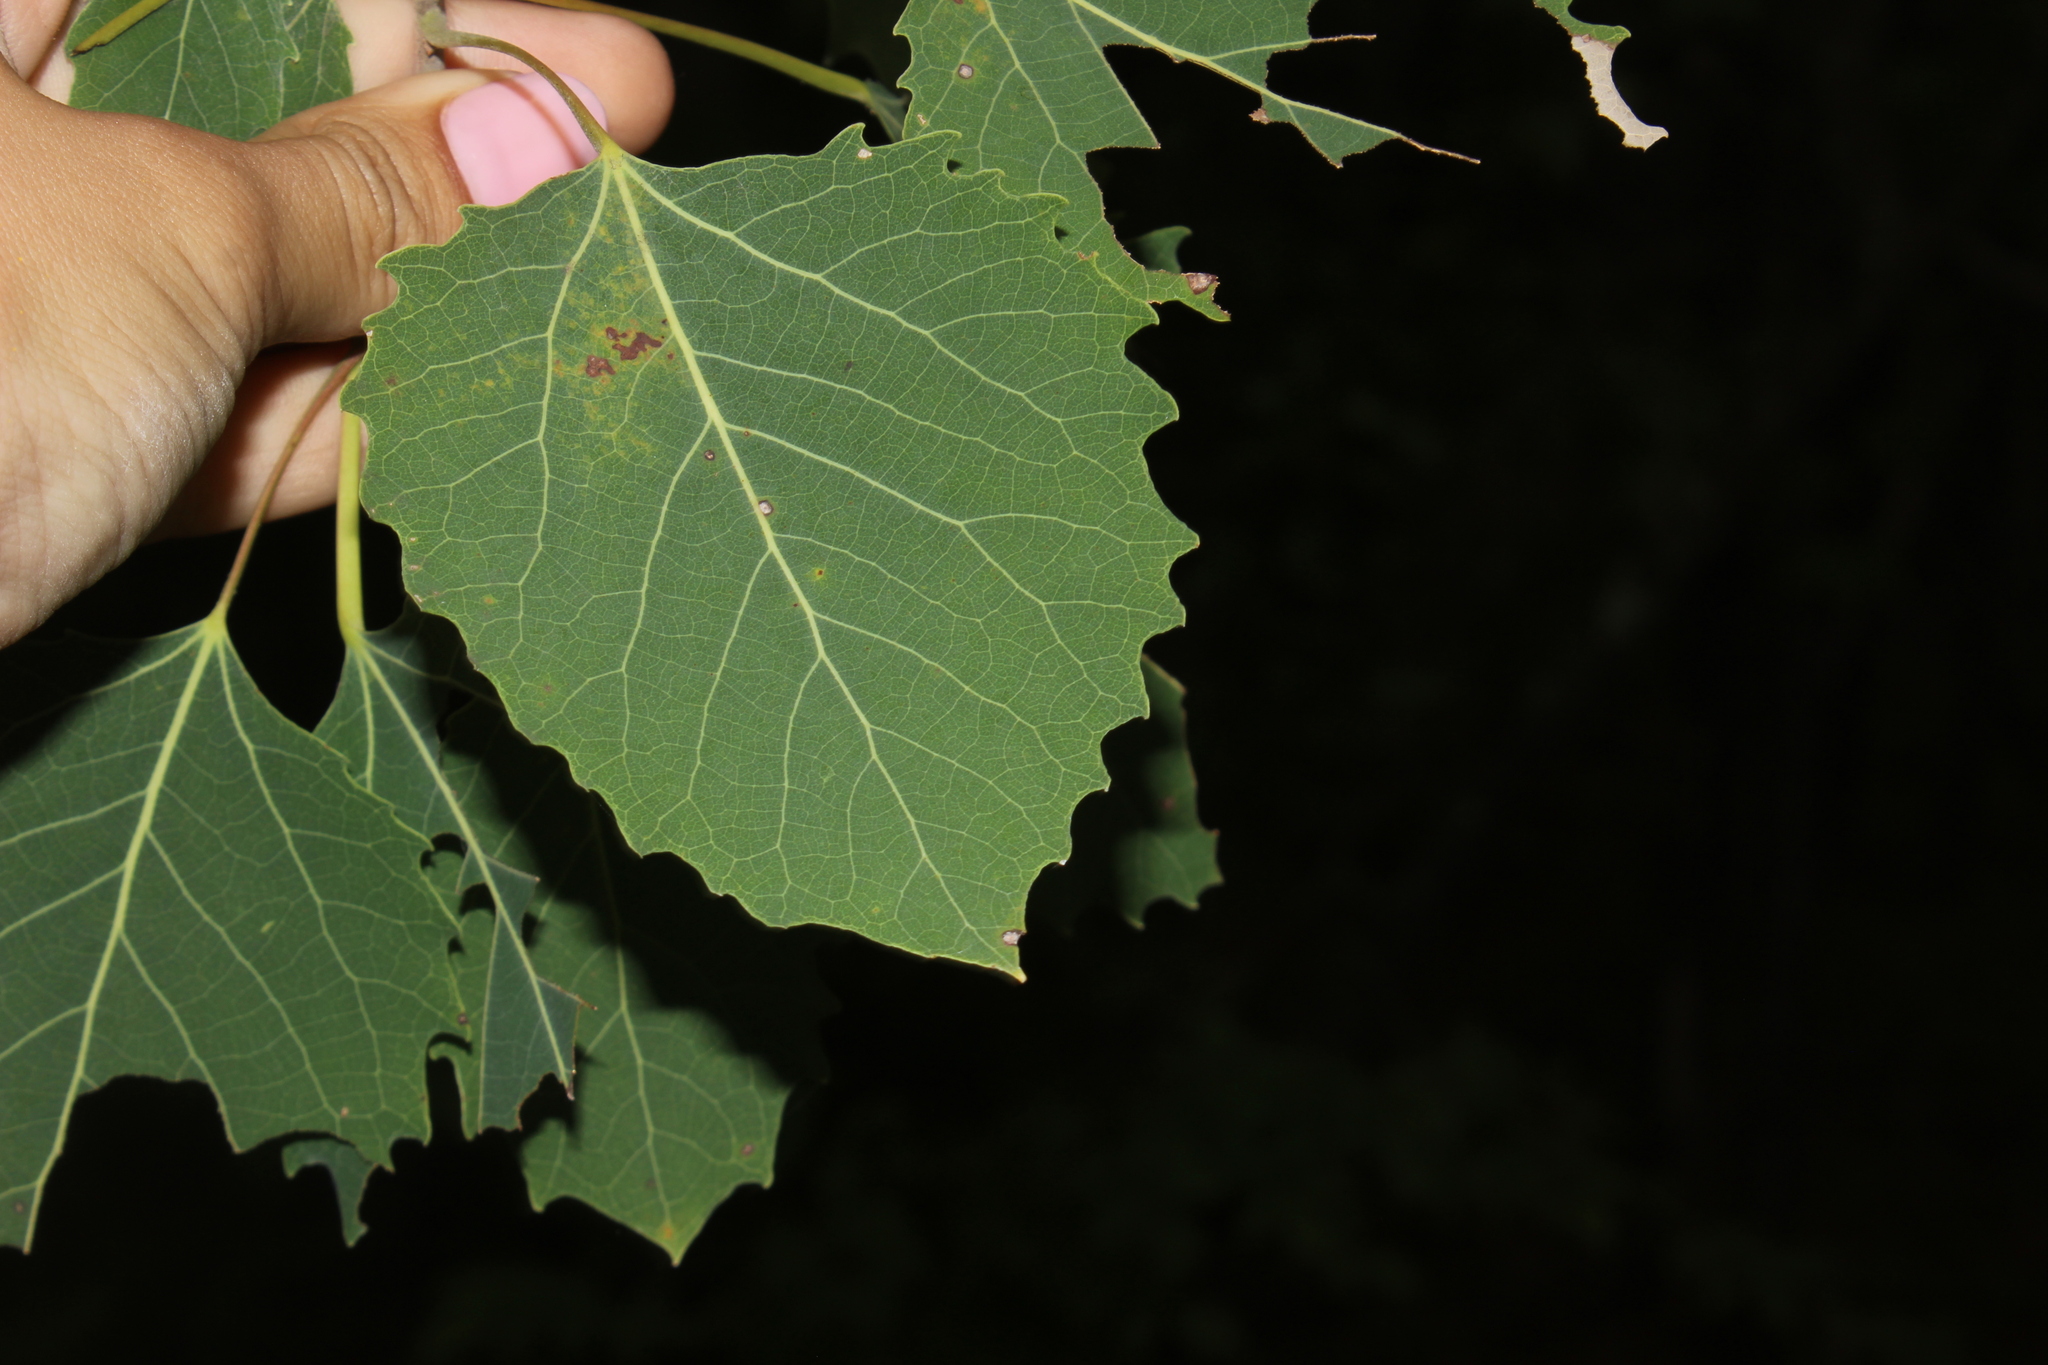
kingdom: Plantae
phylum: Tracheophyta
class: Magnoliopsida
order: Malpighiales
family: Salicaceae
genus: Populus
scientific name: Populus grandidentata
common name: Bigtooth aspen
